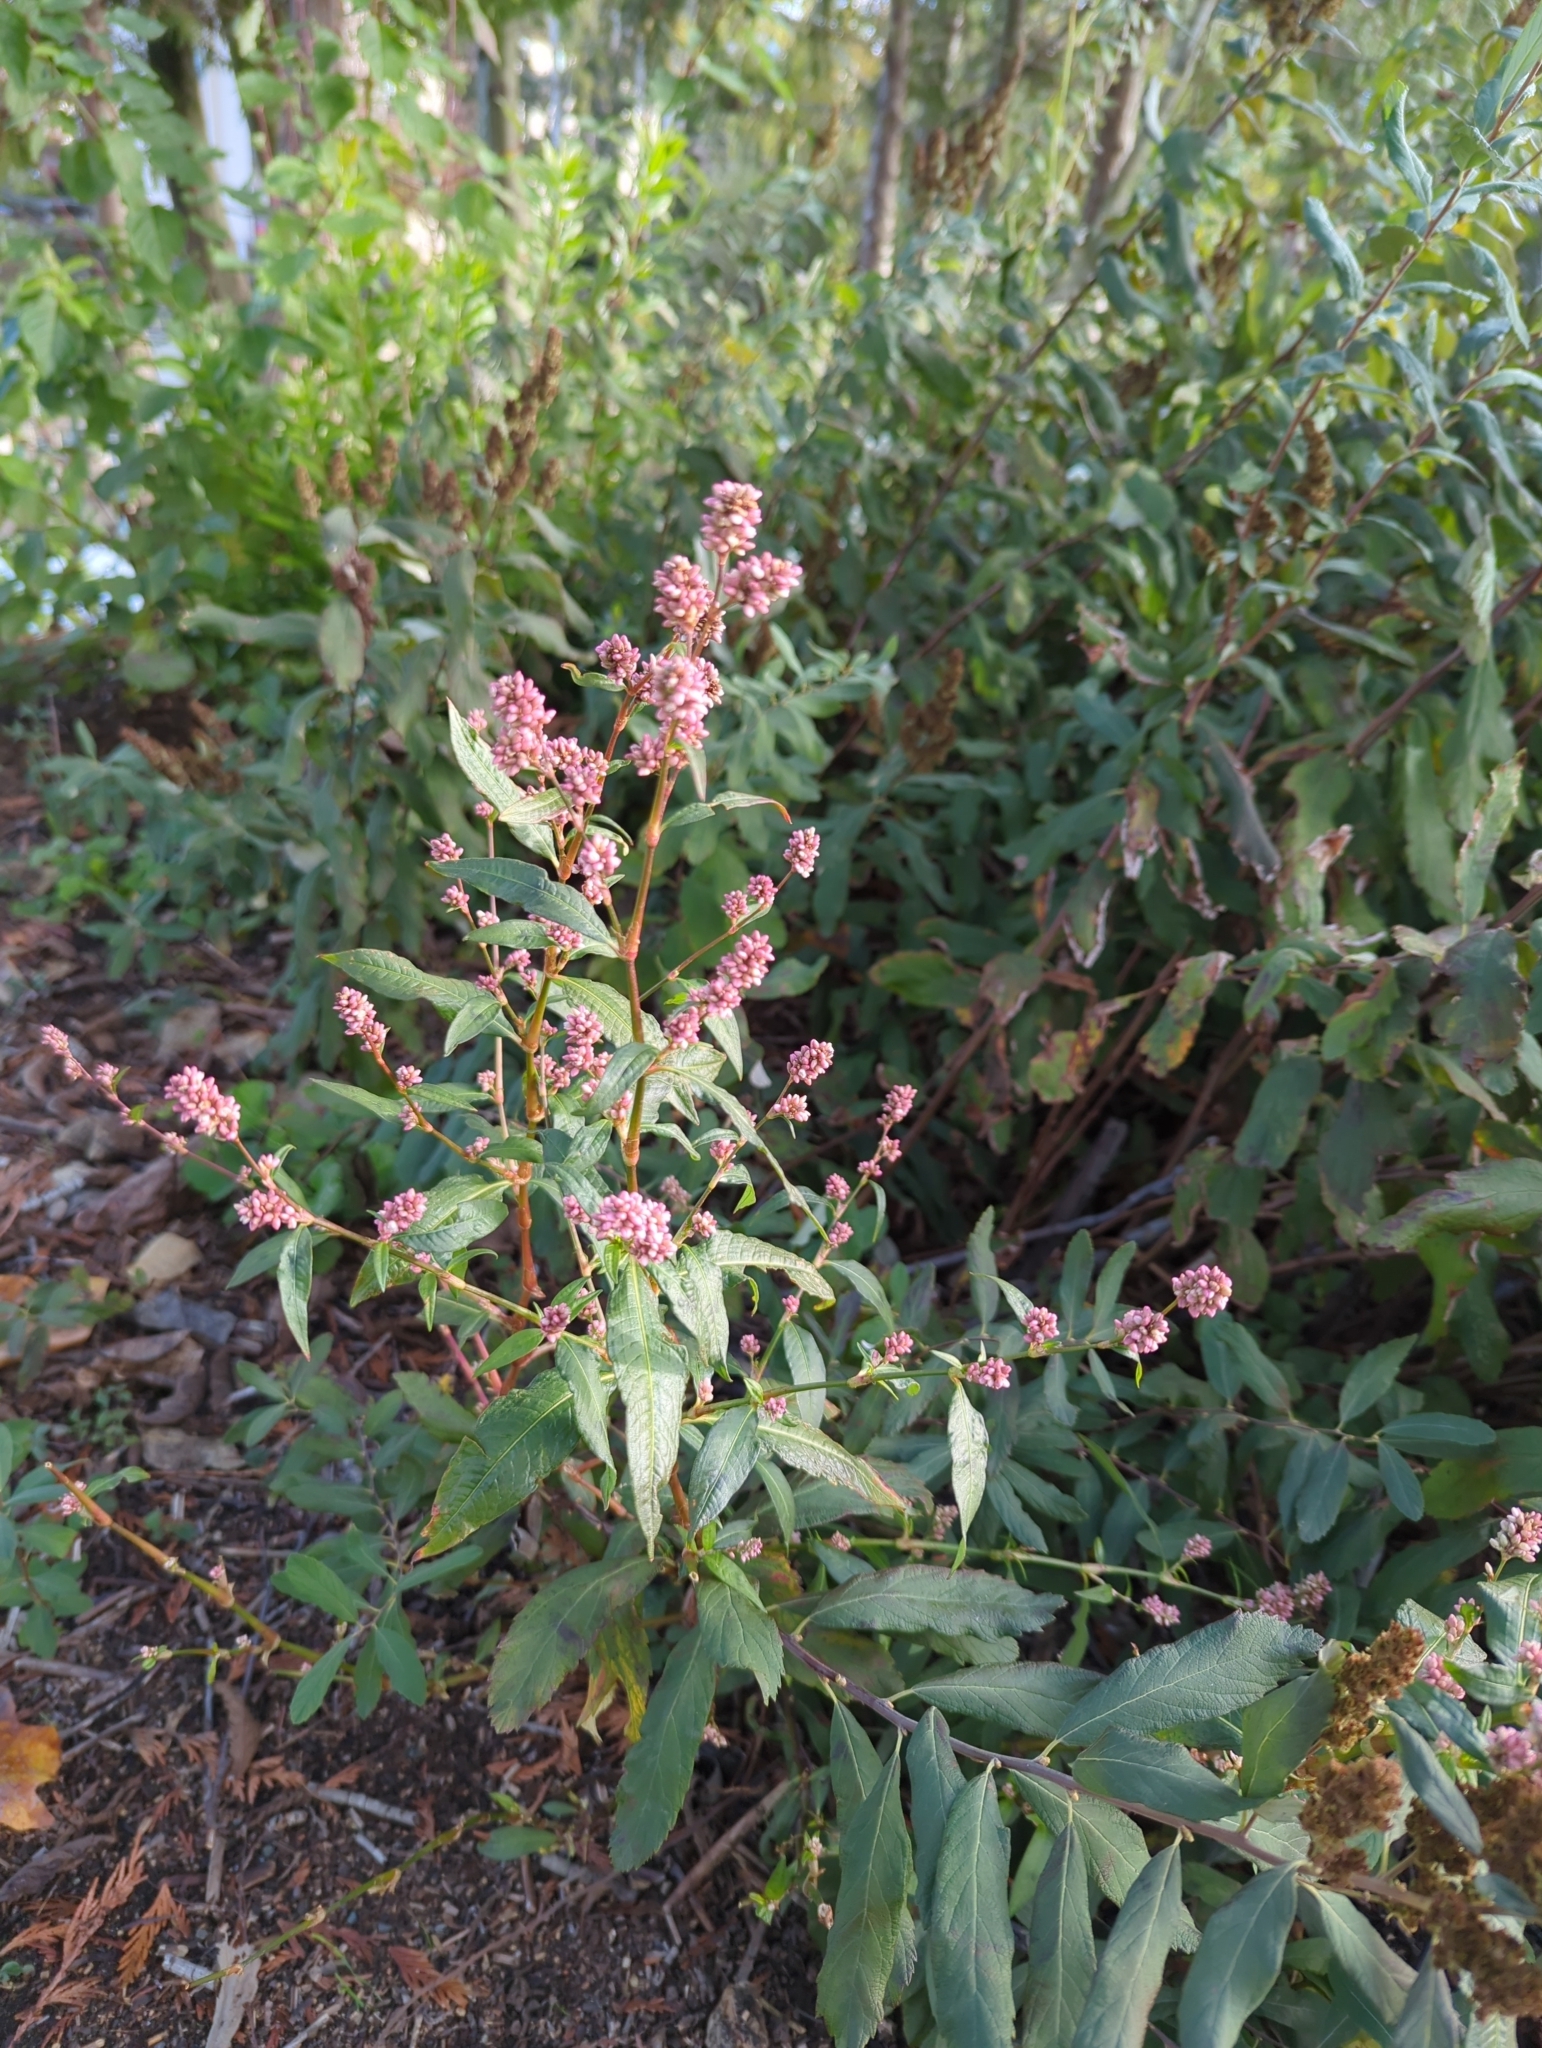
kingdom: Plantae
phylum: Tracheophyta
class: Magnoliopsida
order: Rosales
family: Rosaceae
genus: Spiraea
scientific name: Spiraea douglasii
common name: Steeplebush
